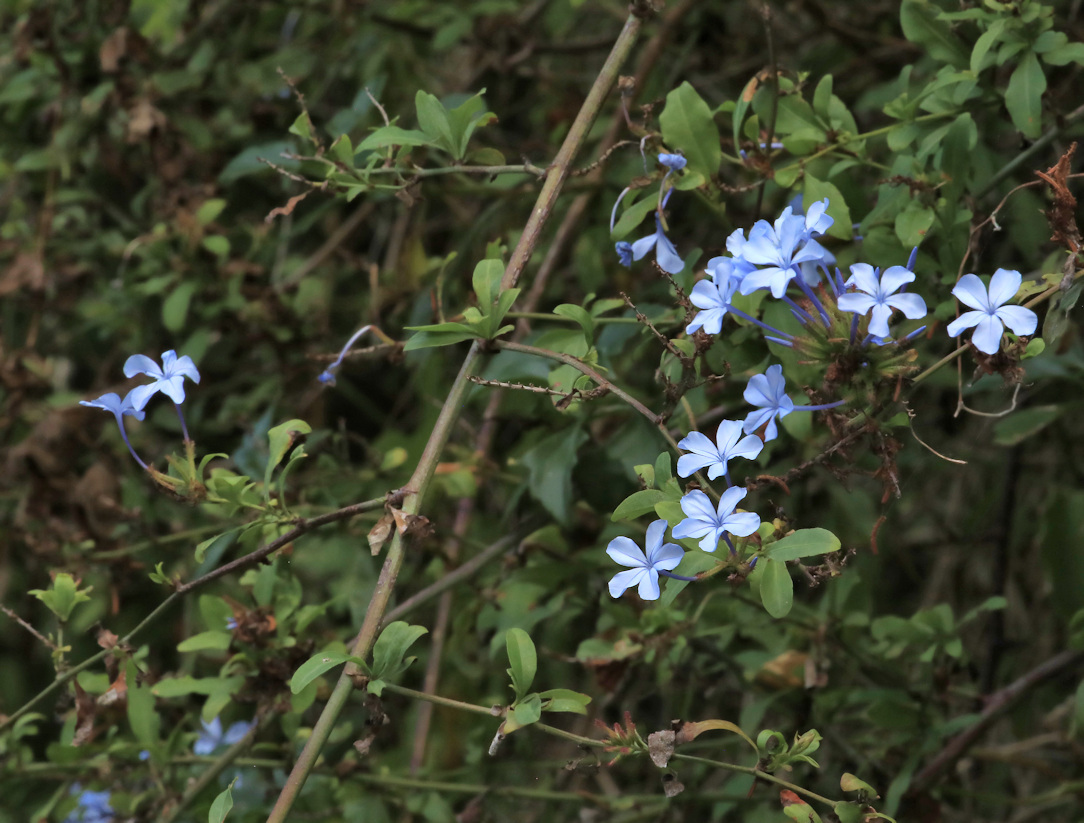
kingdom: Plantae
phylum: Tracheophyta
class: Magnoliopsida
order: Caryophyllales
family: Plumbaginaceae
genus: Plumbago
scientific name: Plumbago auriculata
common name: Cape leadwort
